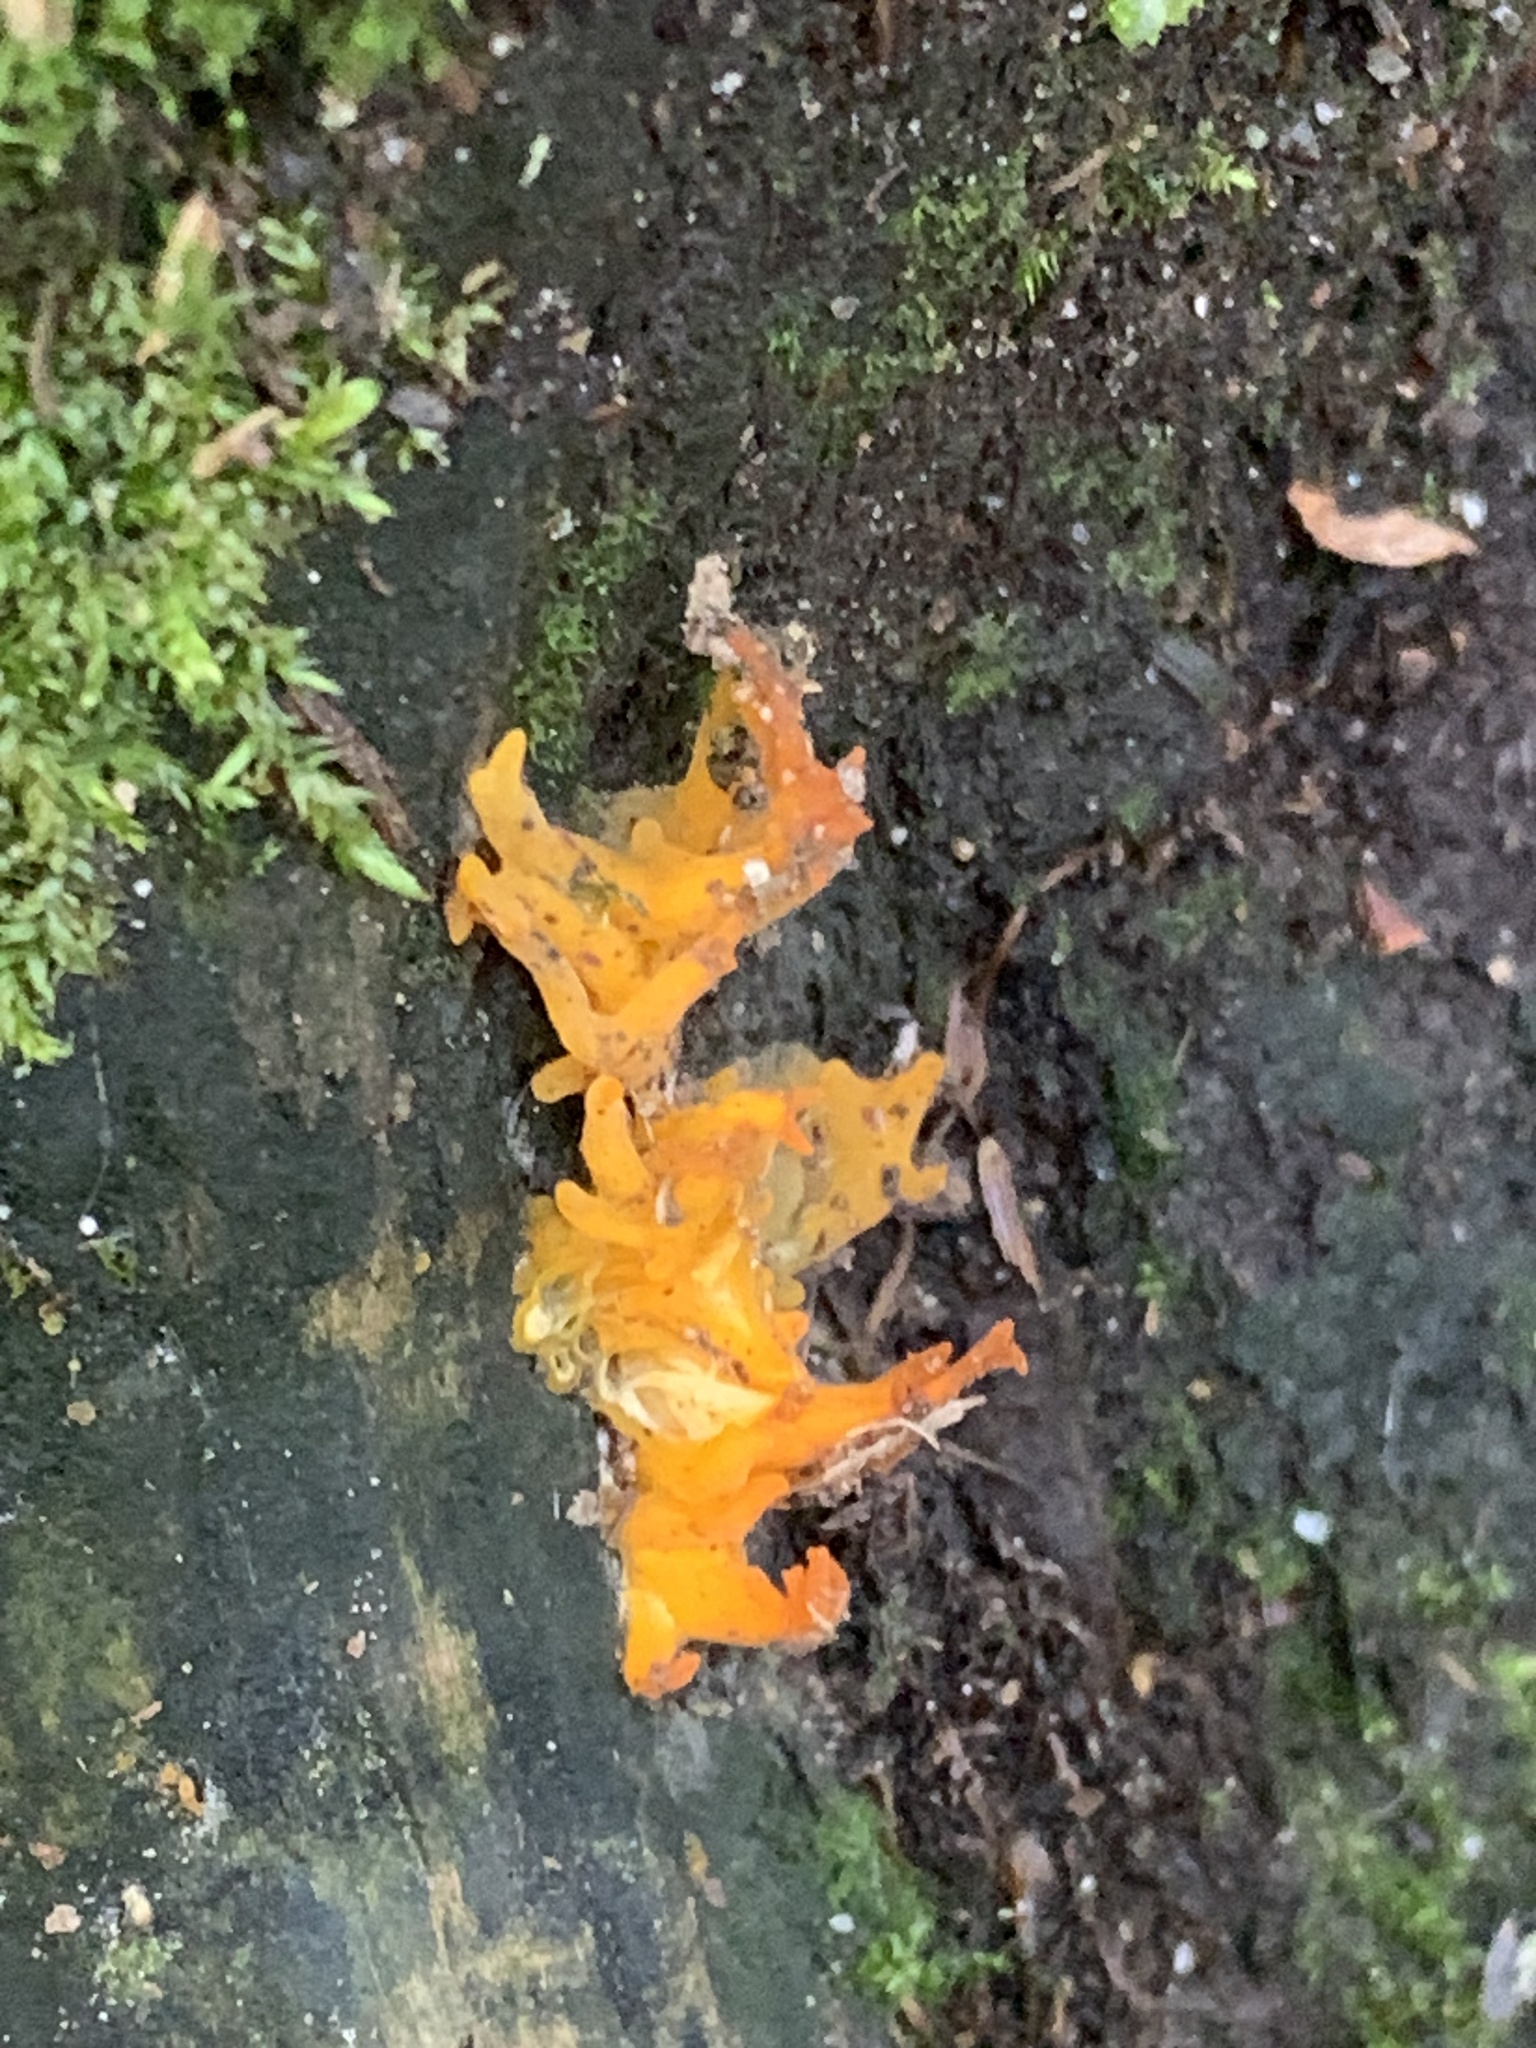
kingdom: Fungi
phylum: Basidiomycota
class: Dacrymycetes
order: Dacrymycetales
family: Dacrymycetaceae
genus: Calocera
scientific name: Calocera cornea
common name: Small stagshorn
